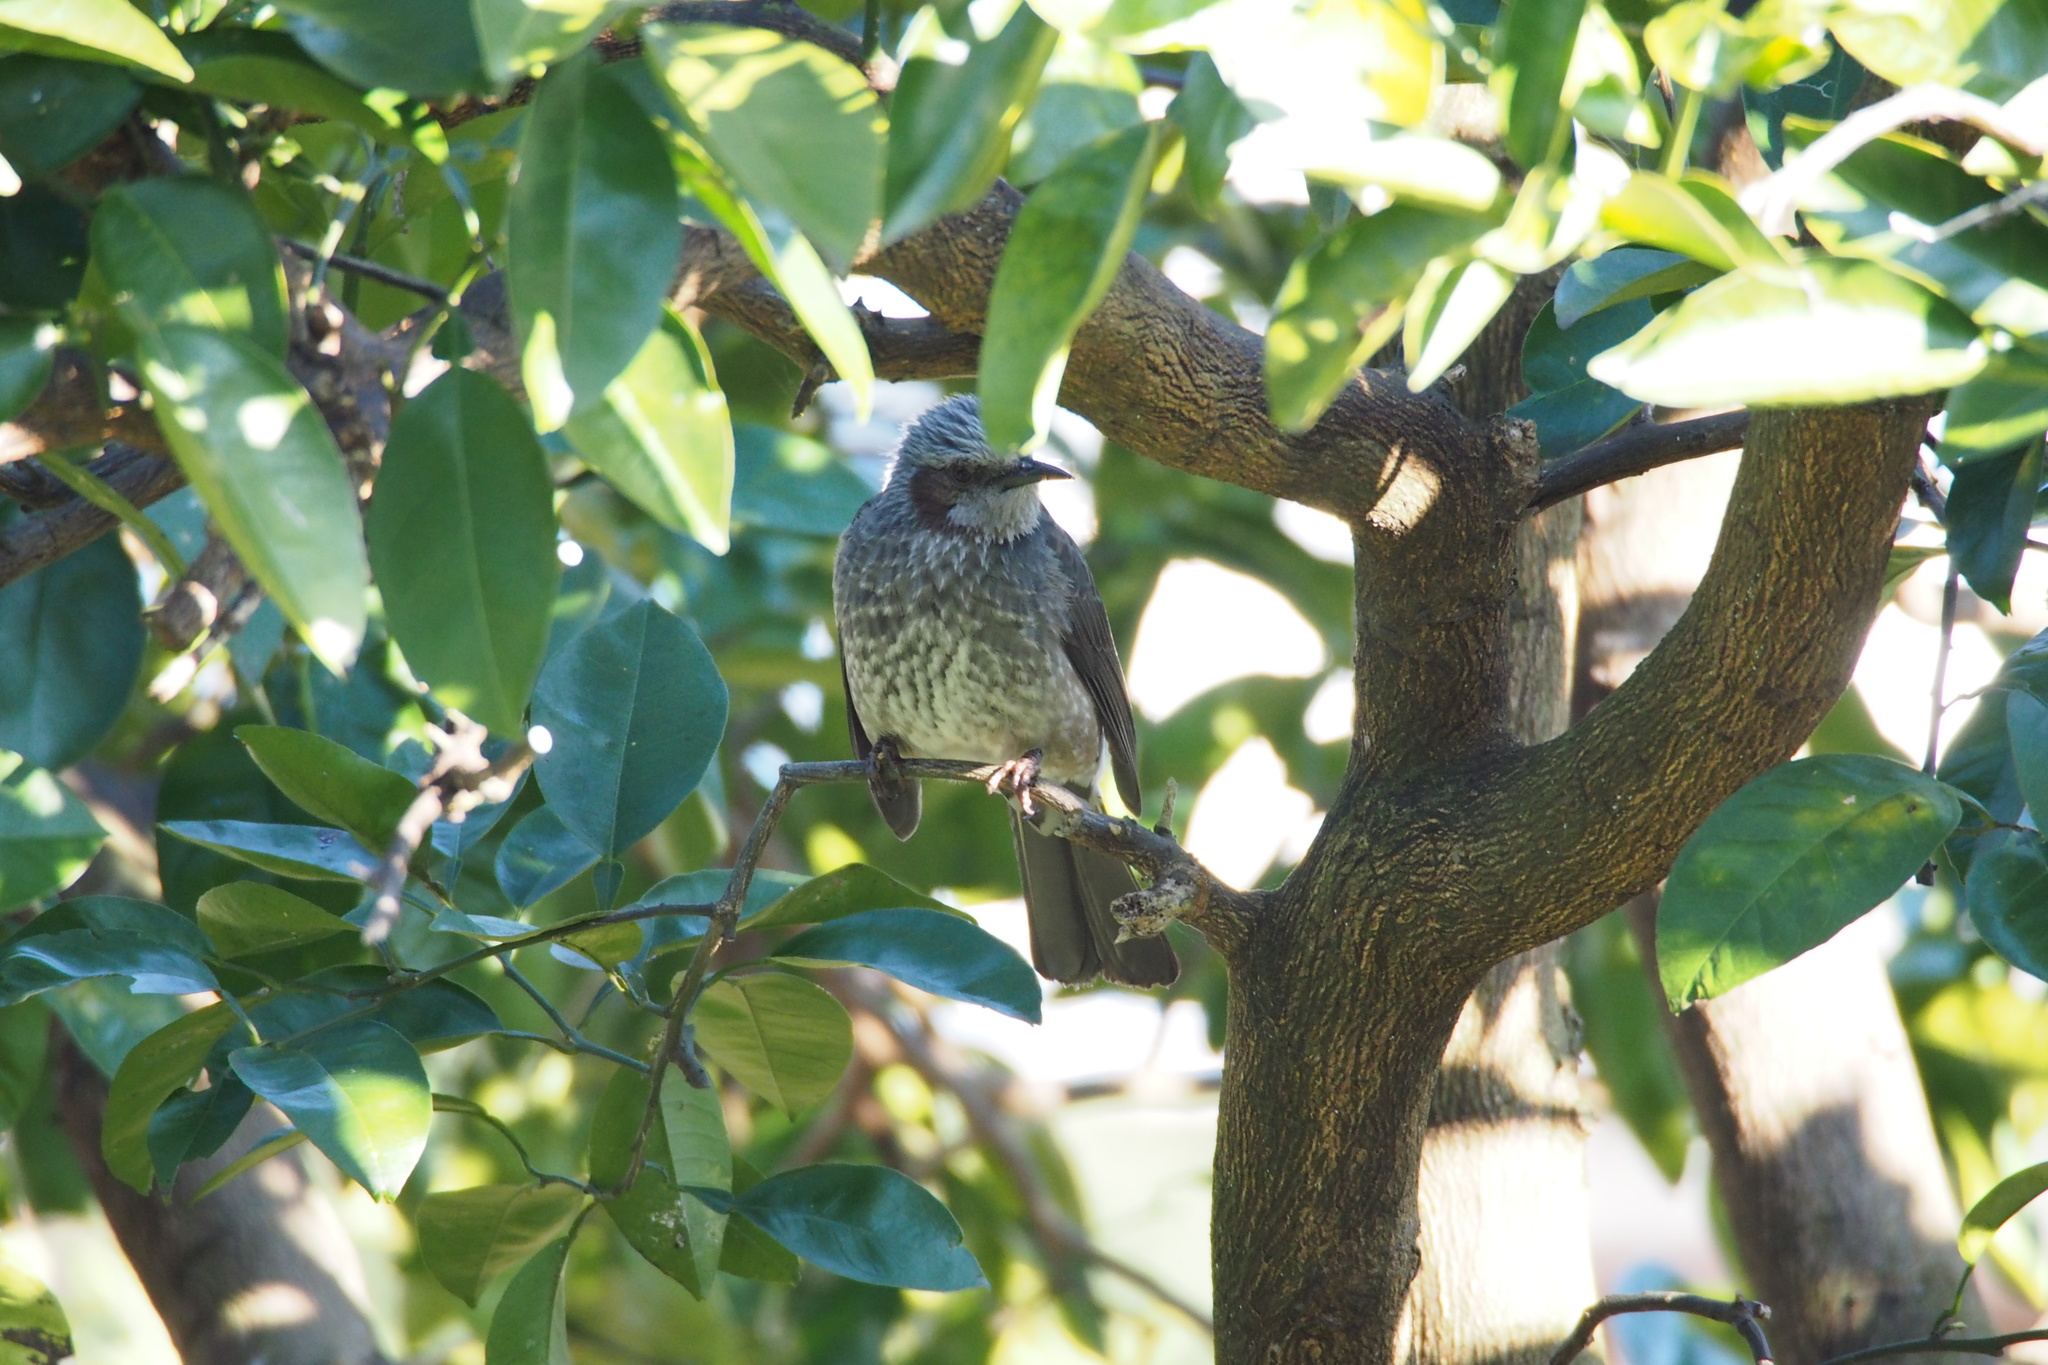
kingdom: Animalia
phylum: Chordata
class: Aves
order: Passeriformes
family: Pycnonotidae
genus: Hypsipetes
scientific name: Hypsipetes amaurotis
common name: Brown-eared bulbul
